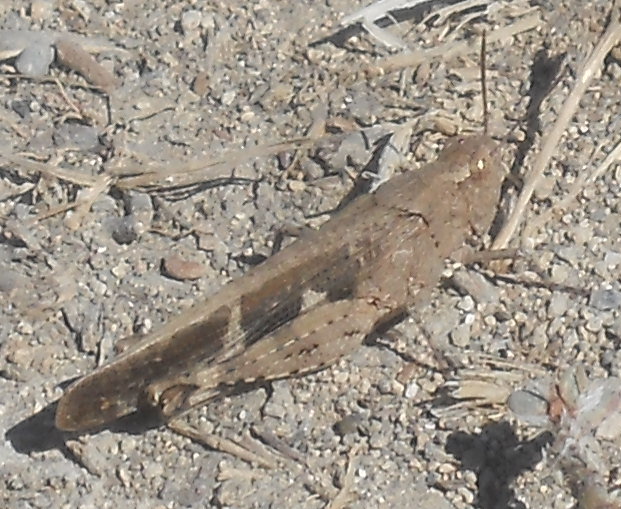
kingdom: Animalia
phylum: Arthropoda
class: Insecta
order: Orthoptera
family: Acrididae
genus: Aiolopus
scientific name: Aiolopus strepens
